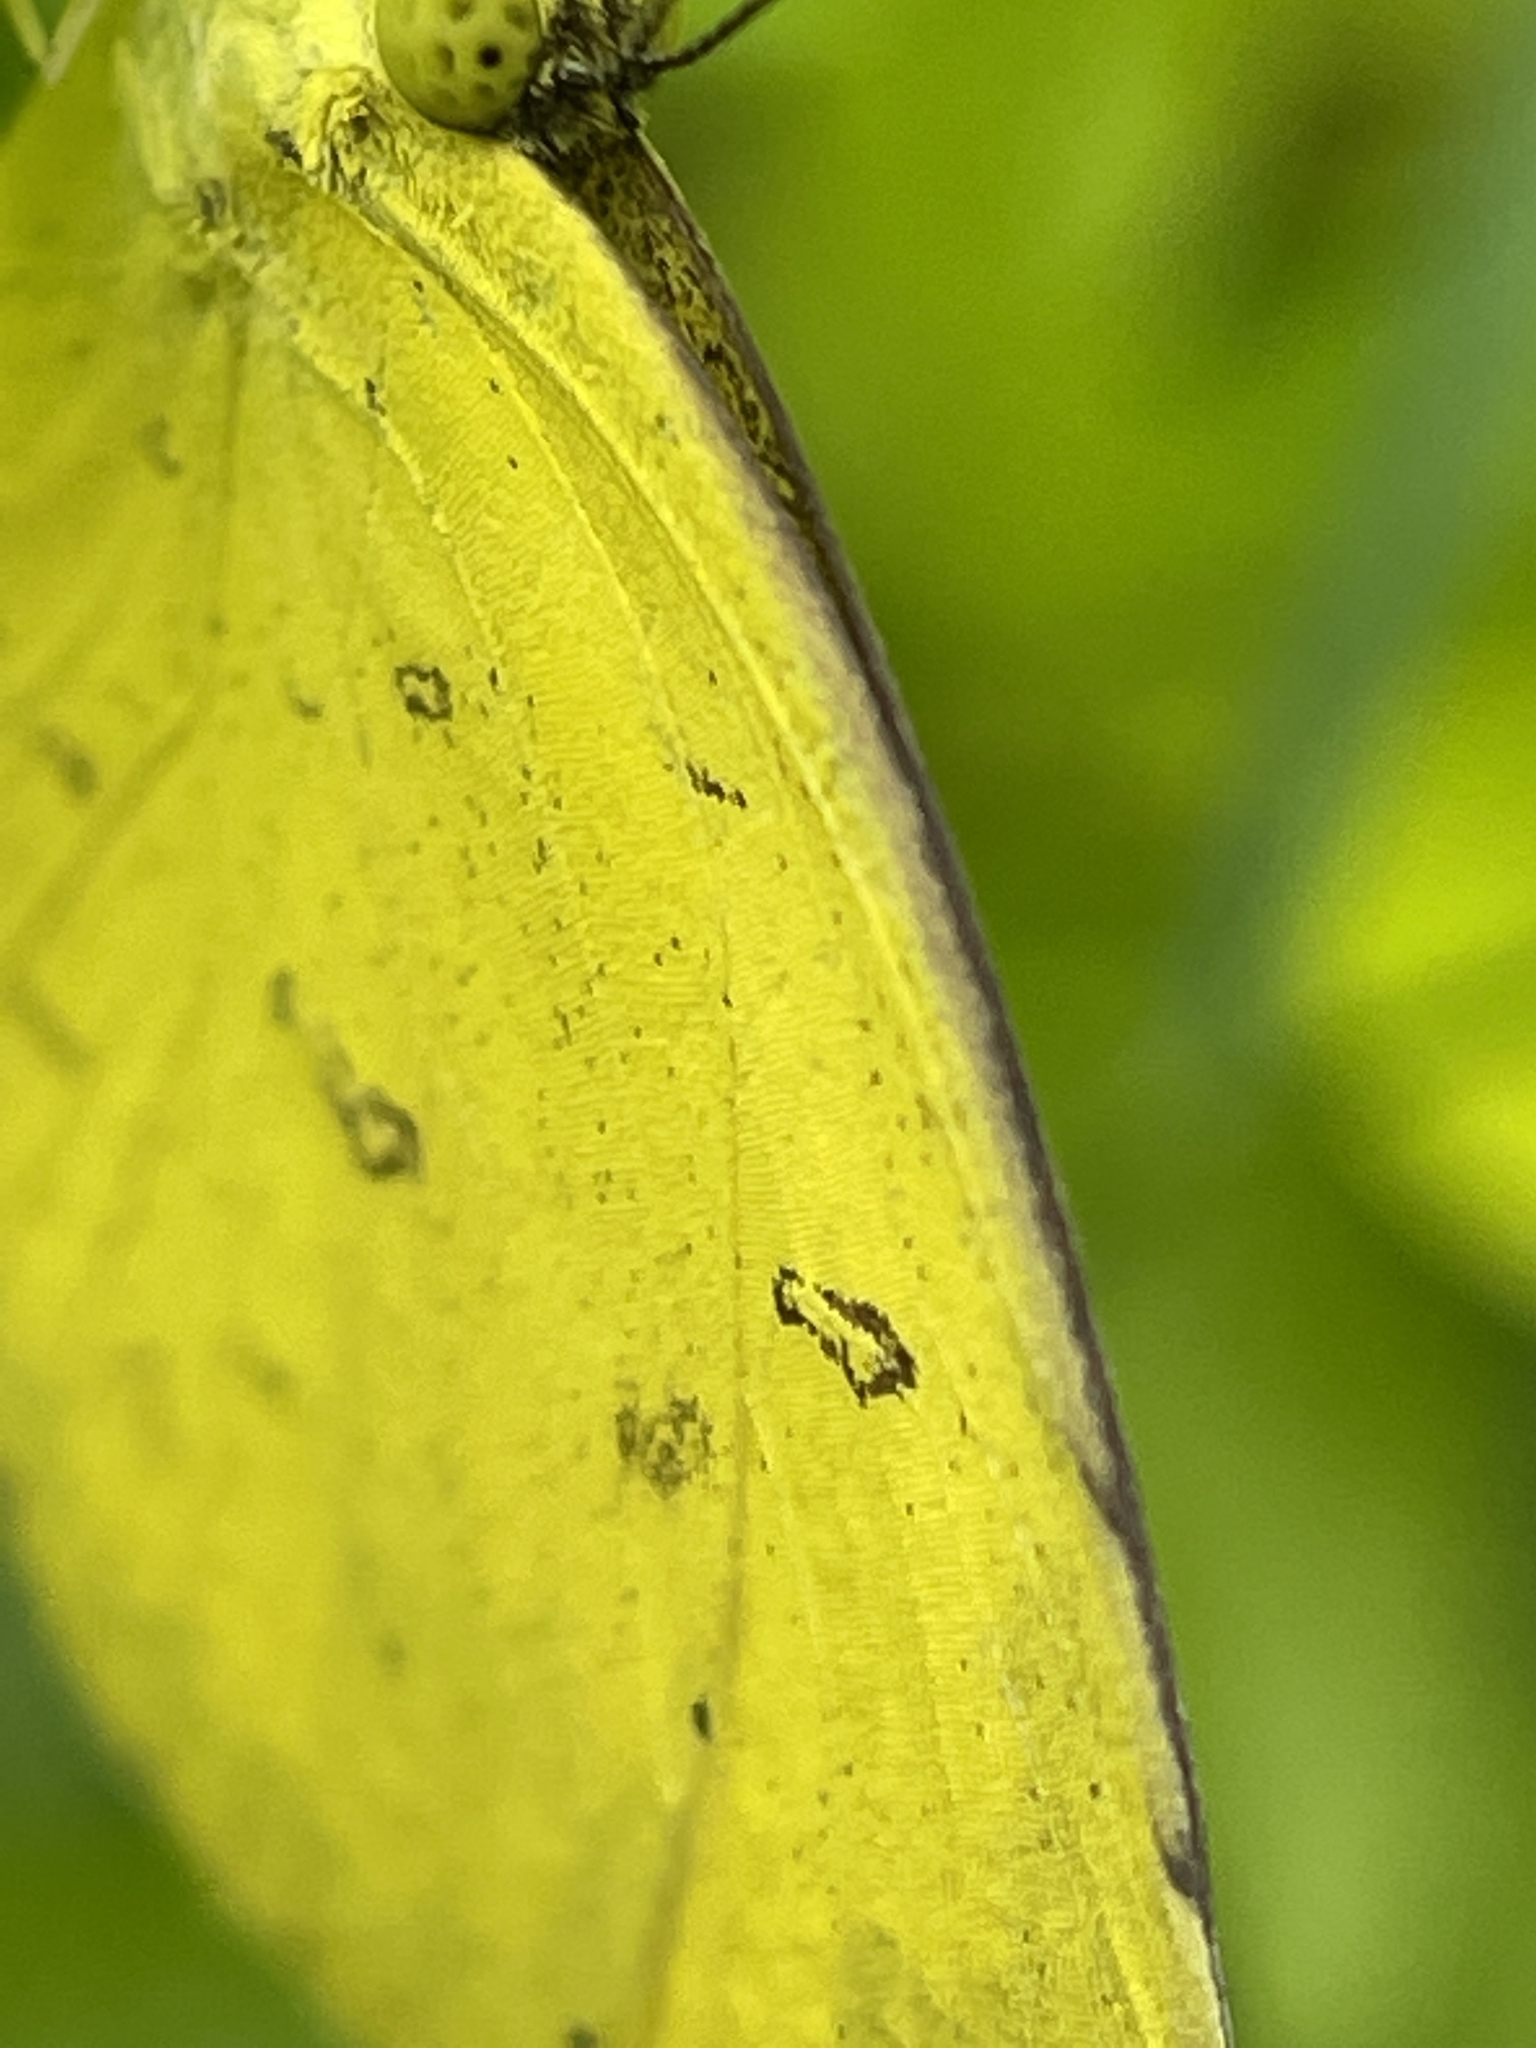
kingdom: Animalia
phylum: Arthropoda
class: Insecta
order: Lepidoptera
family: Pieridae
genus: Eurema
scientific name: Eurema hecabe
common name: Pale grass yellow
